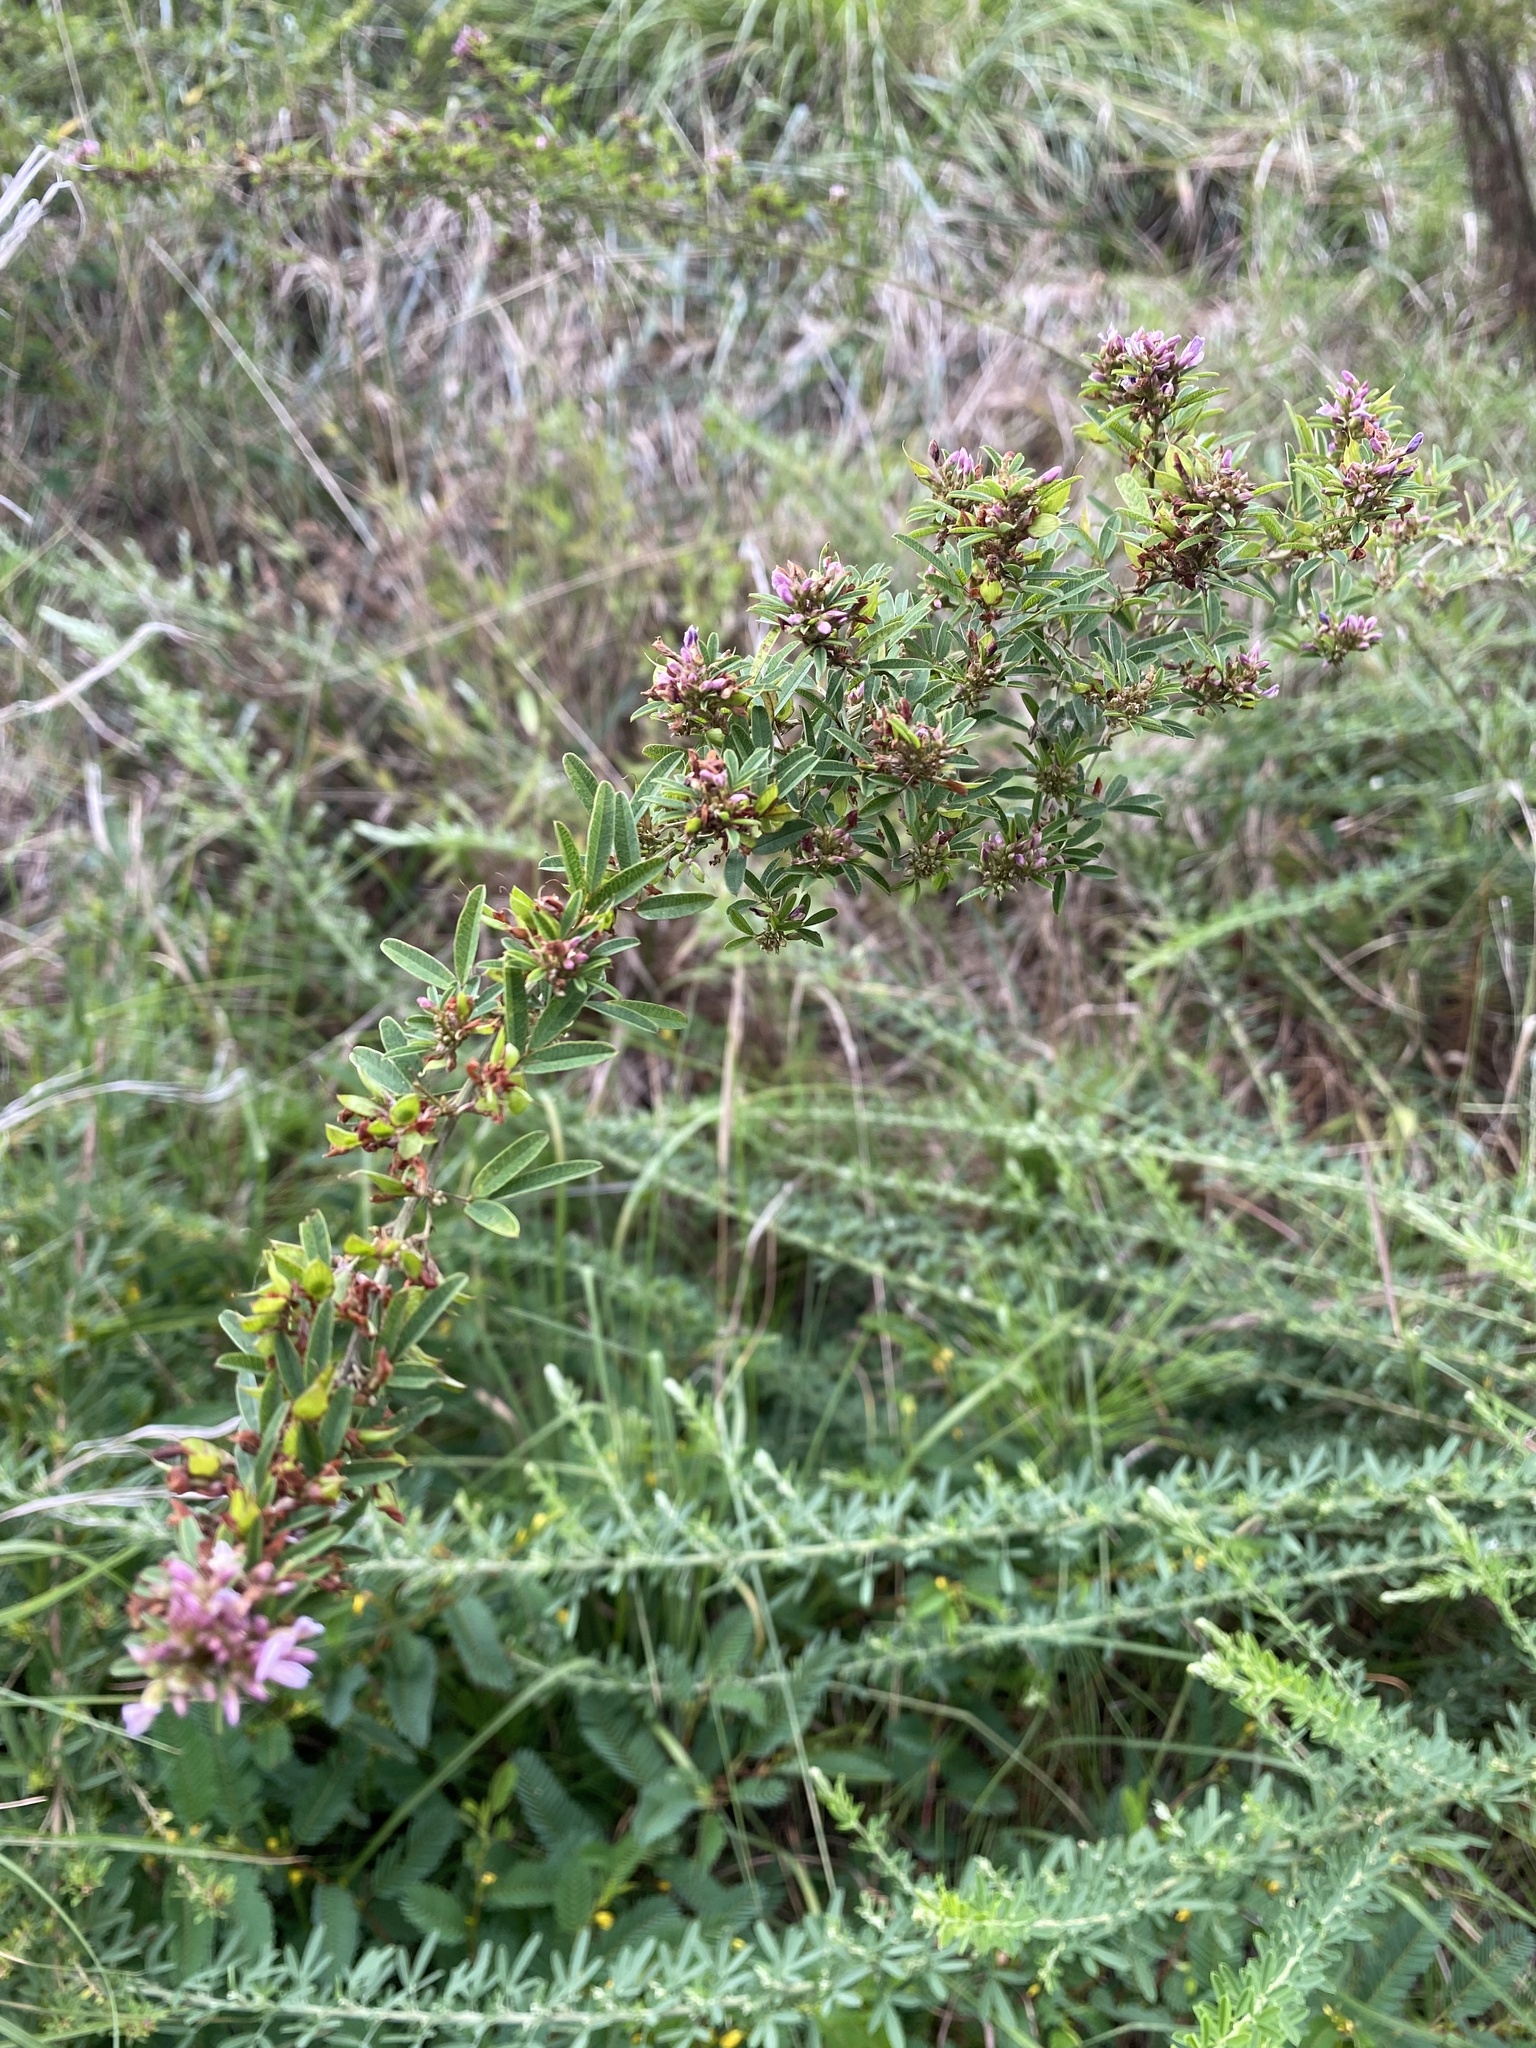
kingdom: Plantae
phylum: Tracheophyta
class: Magnoliopsida
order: Fabales
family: Fabaceae
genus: Lespedeza
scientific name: Lespedeza virginica
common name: Slender bush-clover
